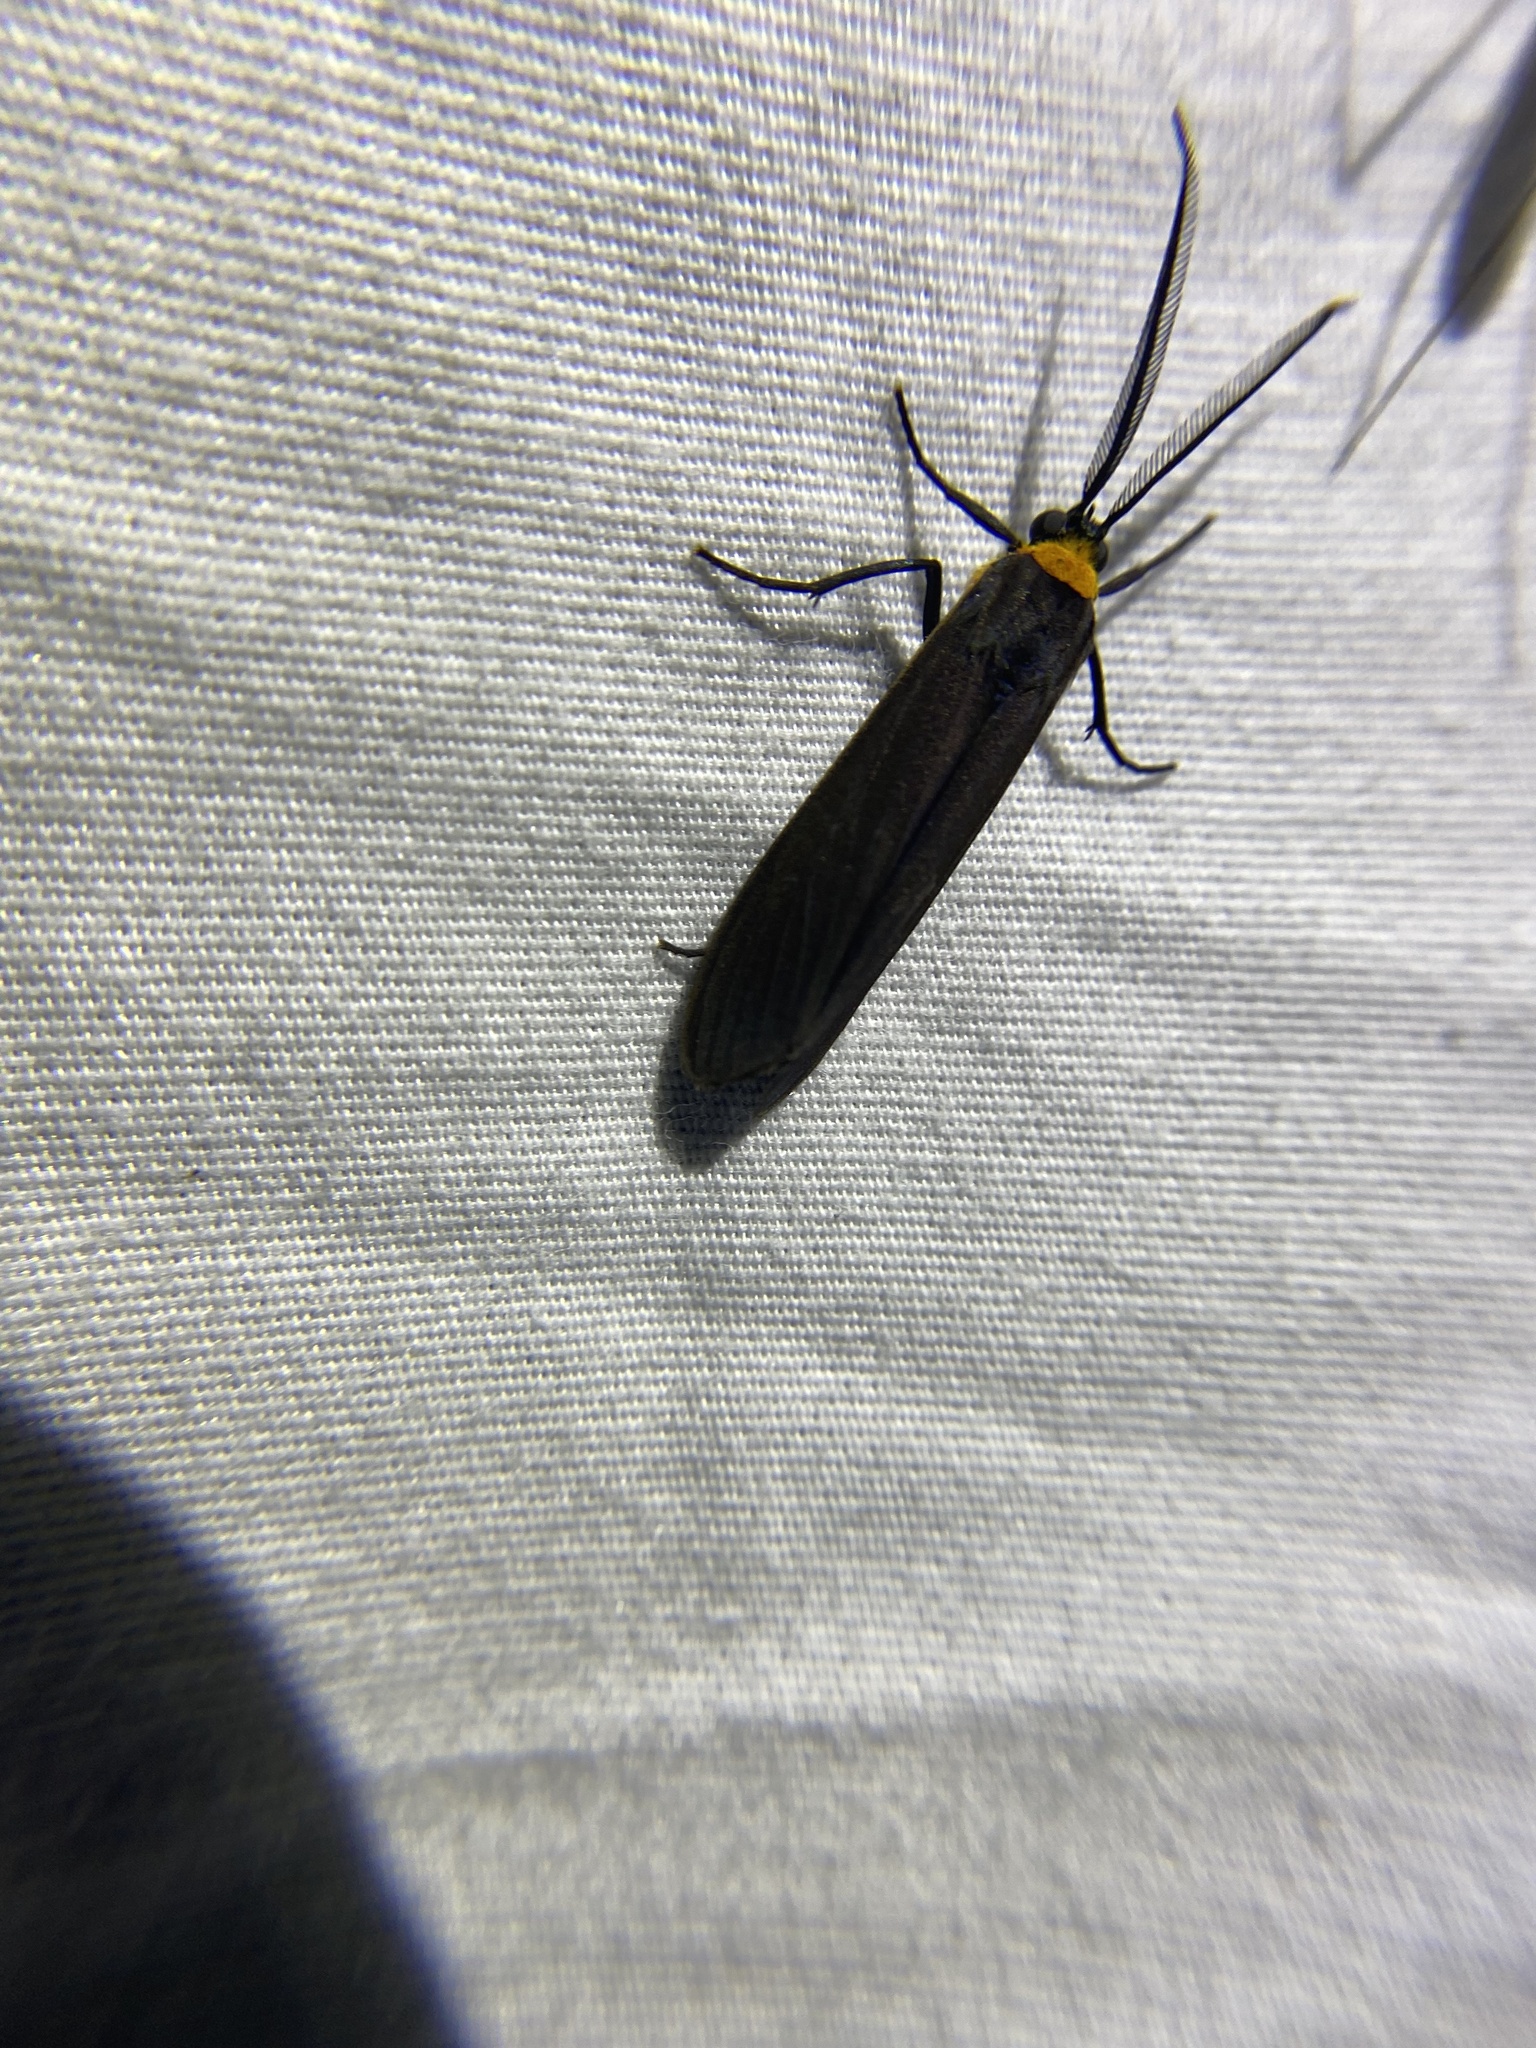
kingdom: Animalia
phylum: Arthropoda
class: Insecta
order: Lepidoptera
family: Erebidae
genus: Cisseps
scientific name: Cisseps fulvicollis
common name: Yellow-collared scape moth
